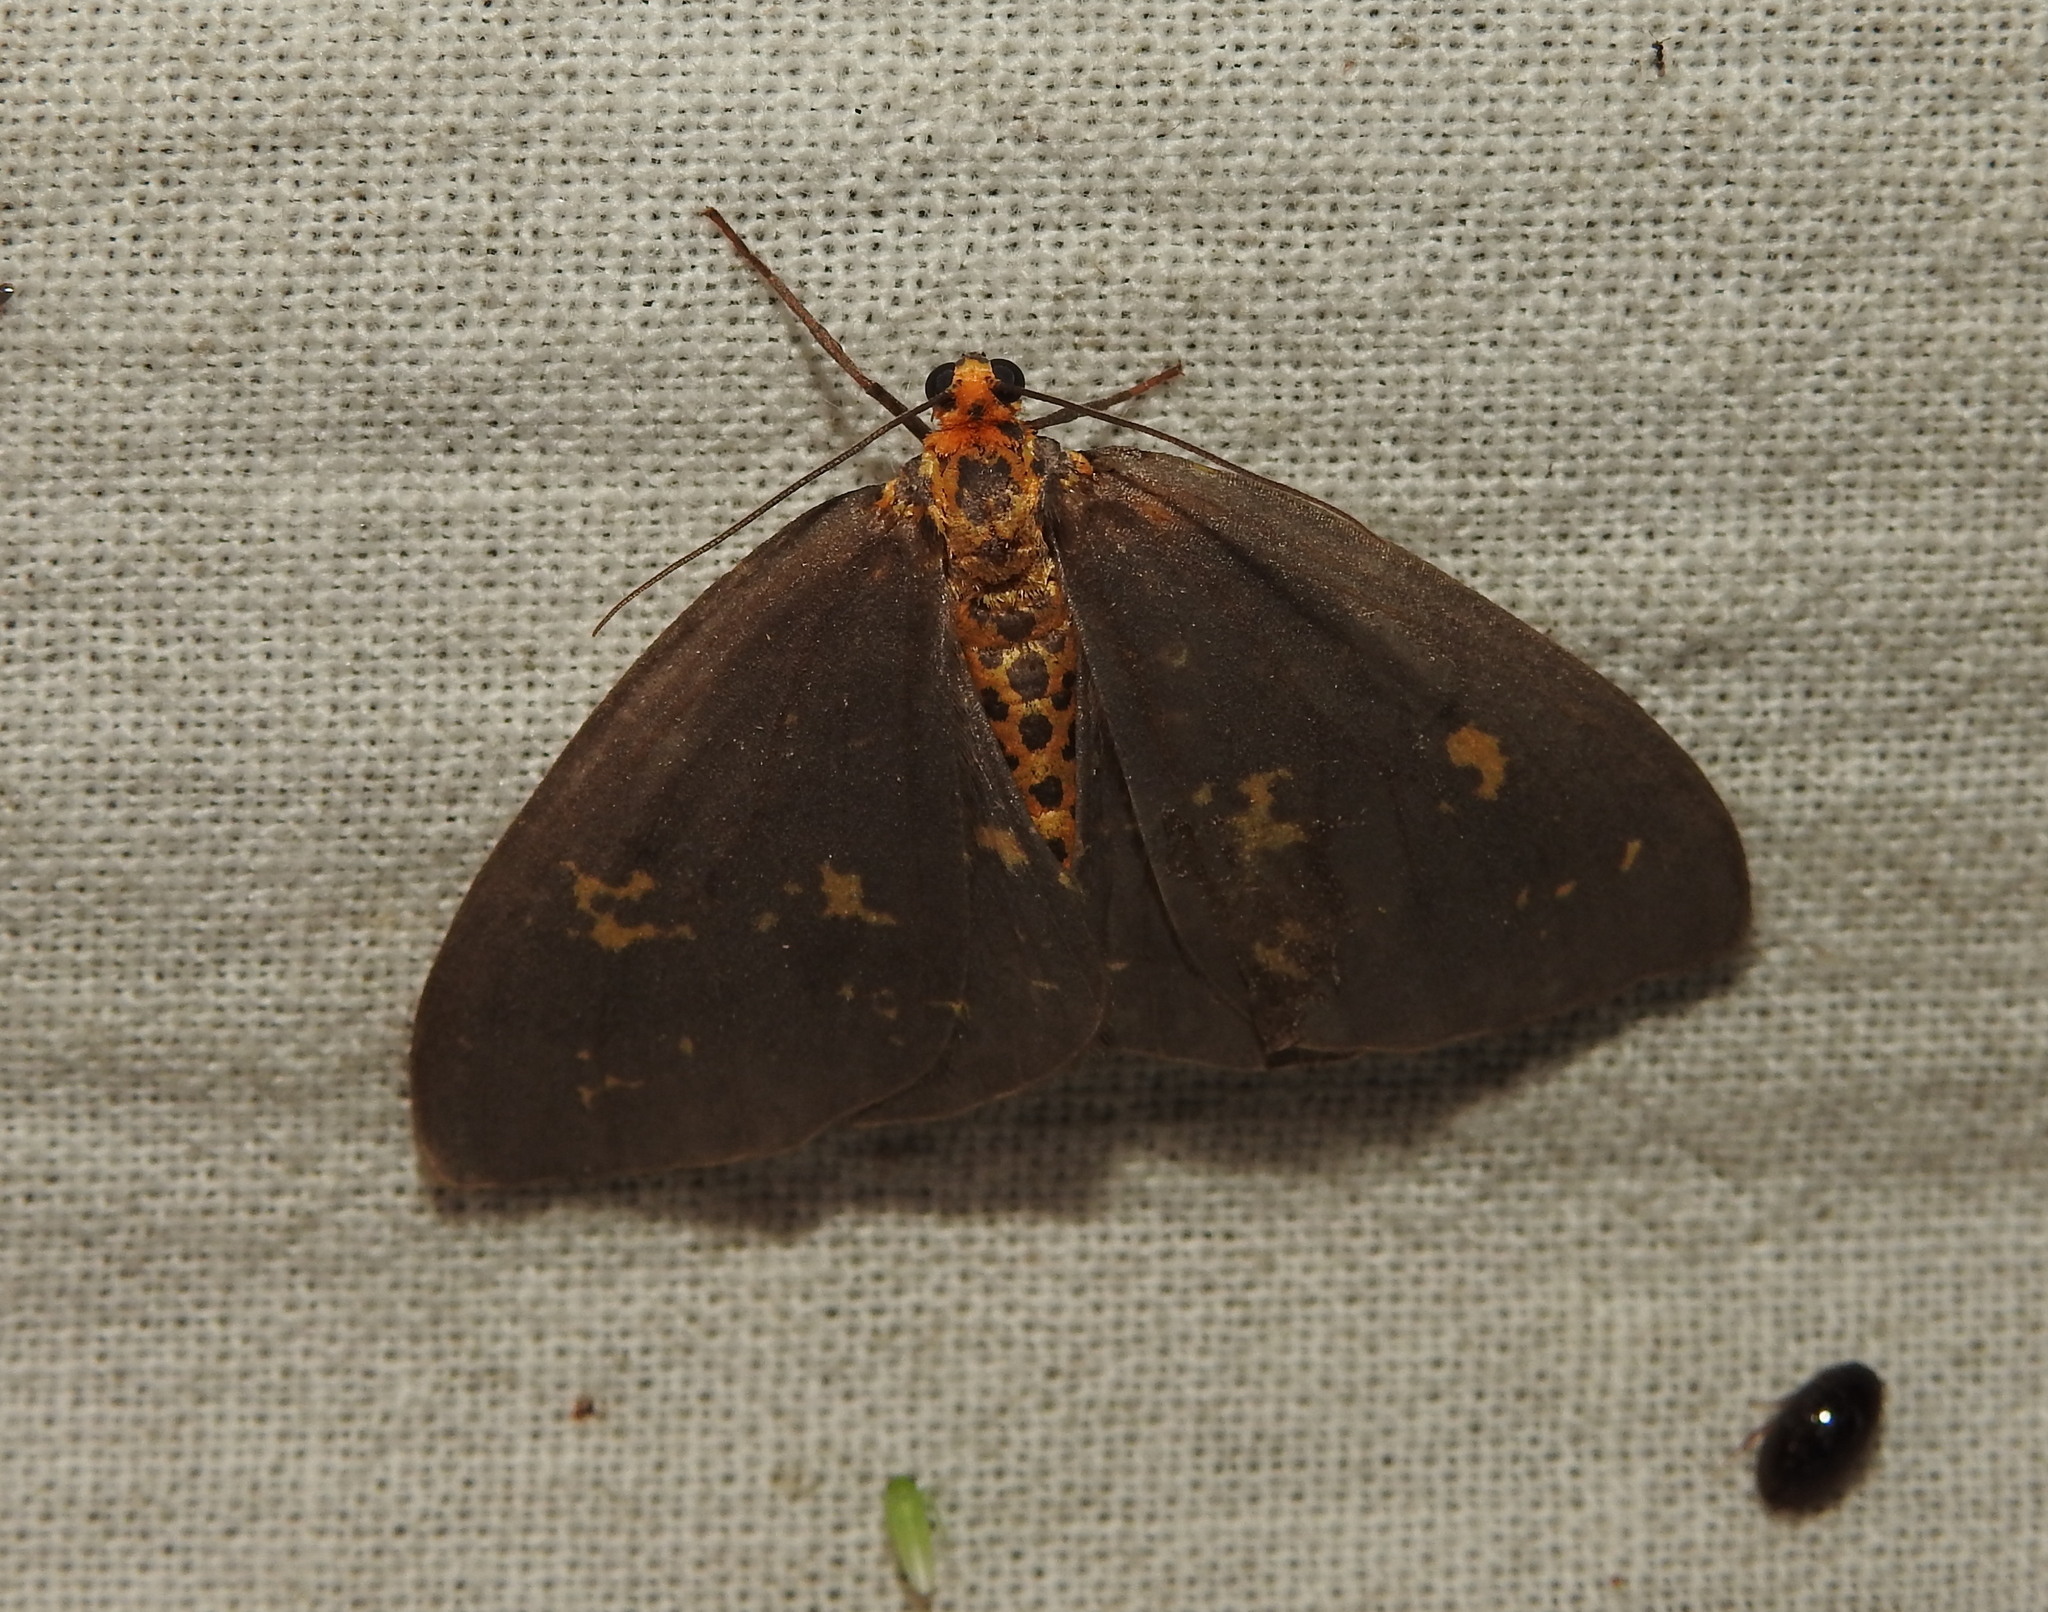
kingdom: Animalia
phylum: Arthropoda
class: Insecta
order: Lepidoptera
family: Geometridae
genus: Abraxas
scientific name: Abraxas poliaria
